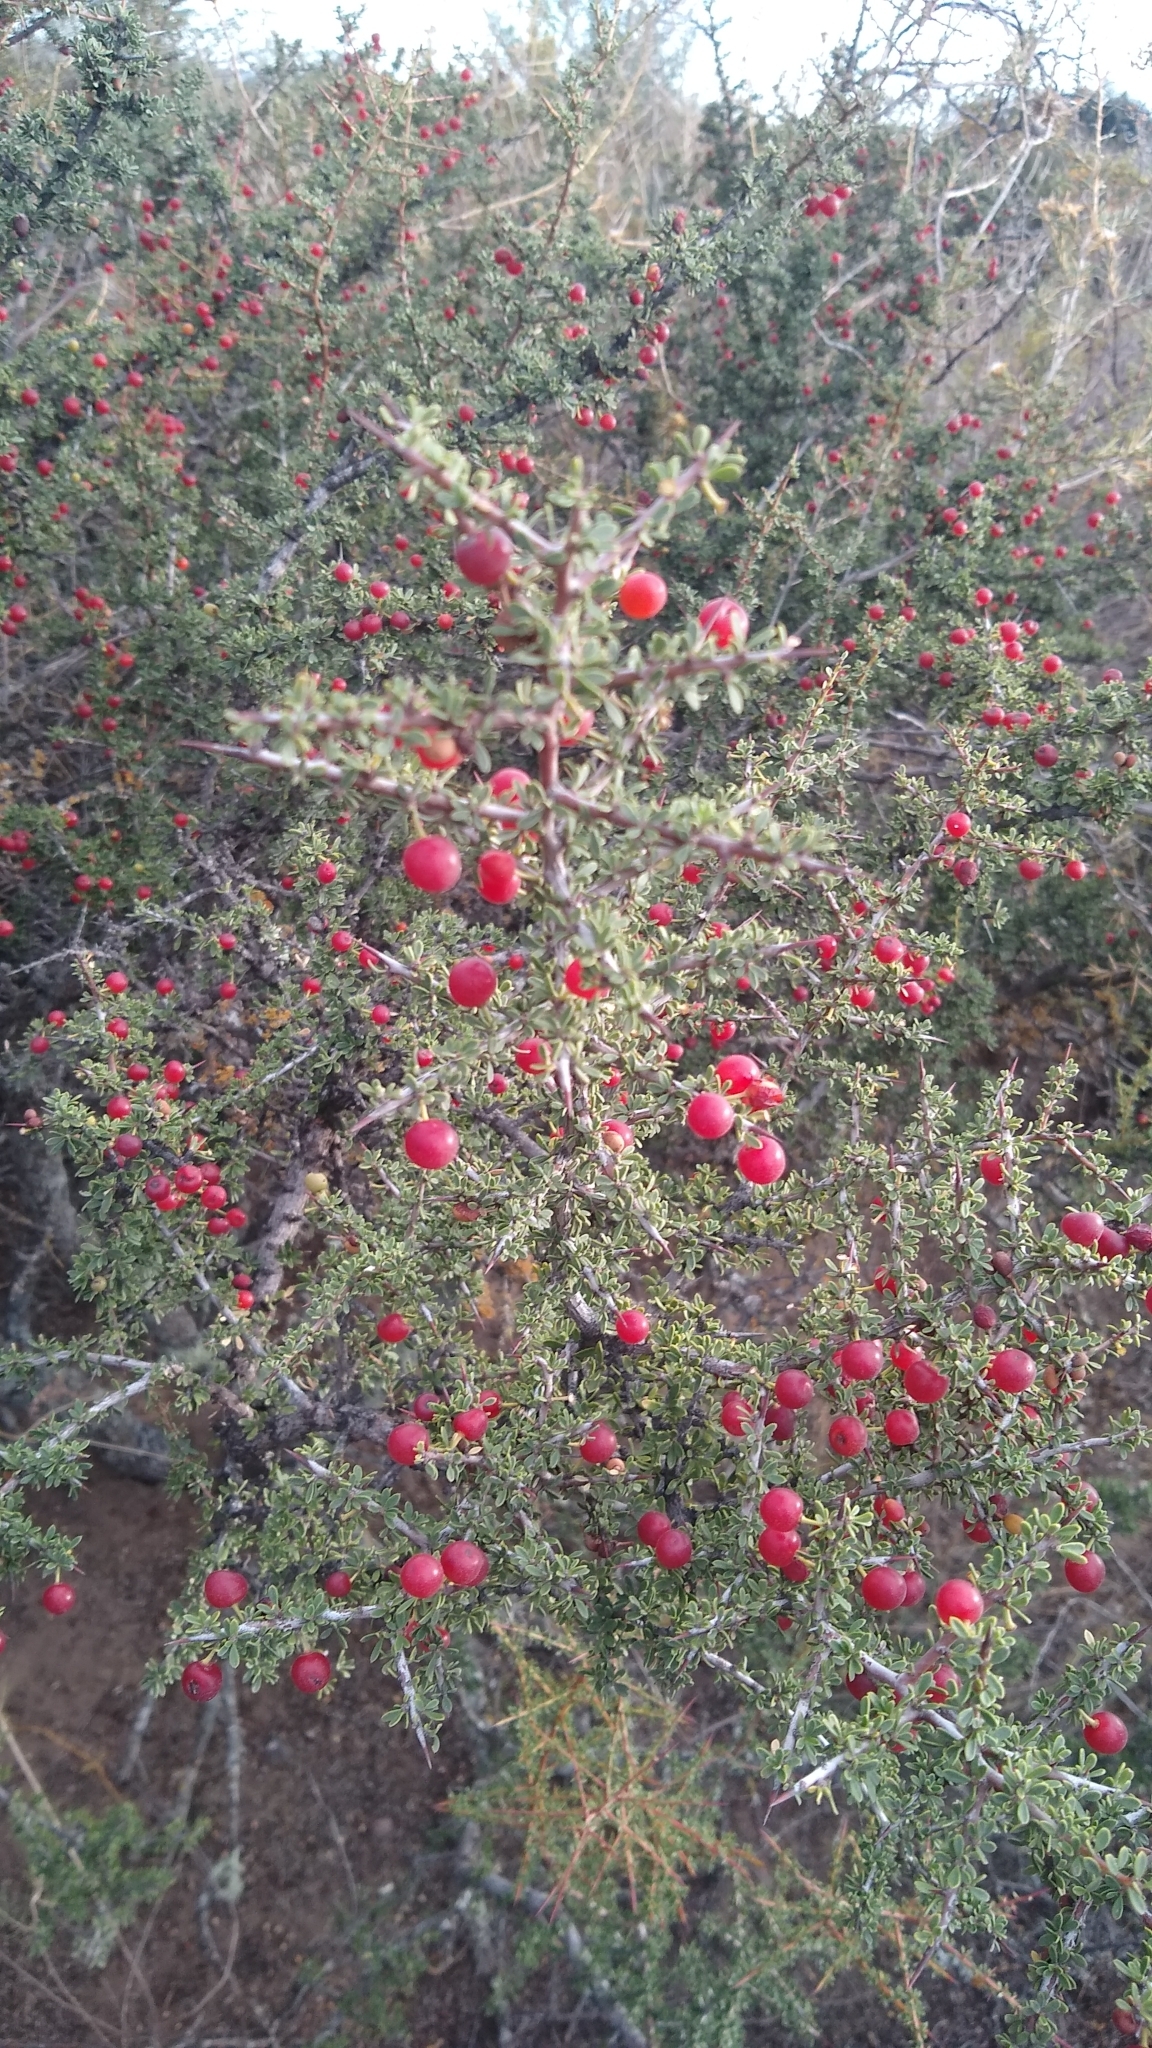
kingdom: Plantae
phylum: Tracheophyta
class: Magnoliopsida
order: Rosales
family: Rhamnaceae
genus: Condalia
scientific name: Condalia microphylla
